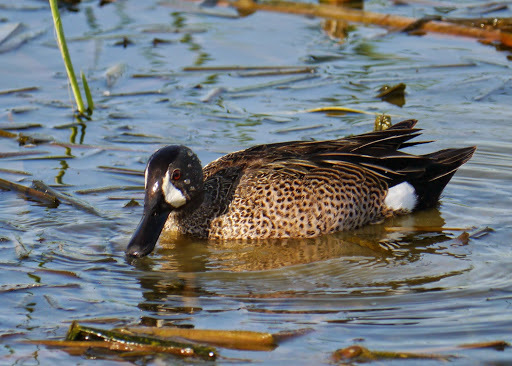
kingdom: Animalia
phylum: Chordata
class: Aves
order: Anseriformes
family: Anatidae
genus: Spatula
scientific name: Spatula discors
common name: Blue-winged teal
